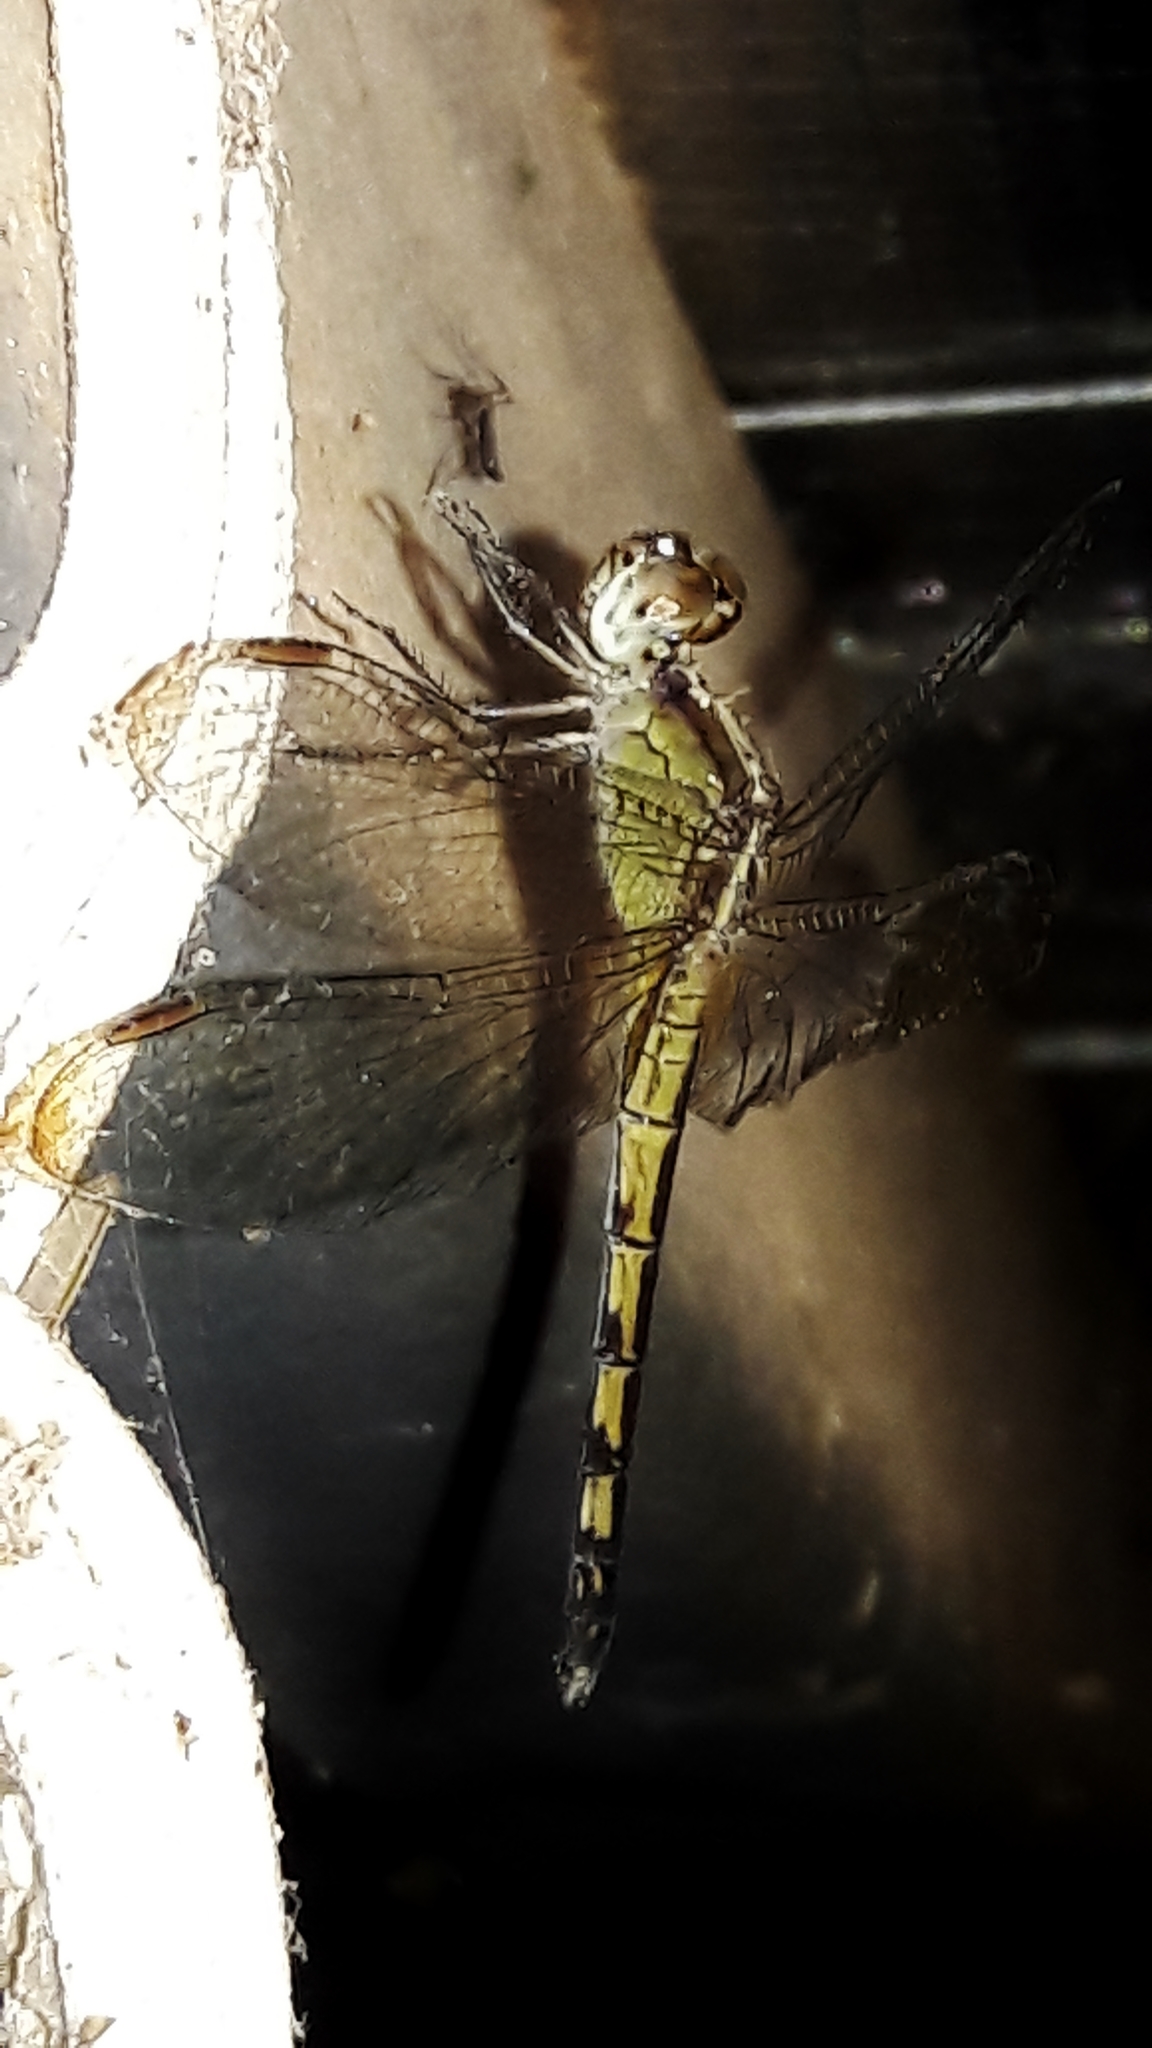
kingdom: Animalia
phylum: Arthropoda
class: Insecta
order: Odonata
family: Libellulidae
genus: Erythrodiplax
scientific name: Erythrodiplax umbrata
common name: Band-winged dragonlet
